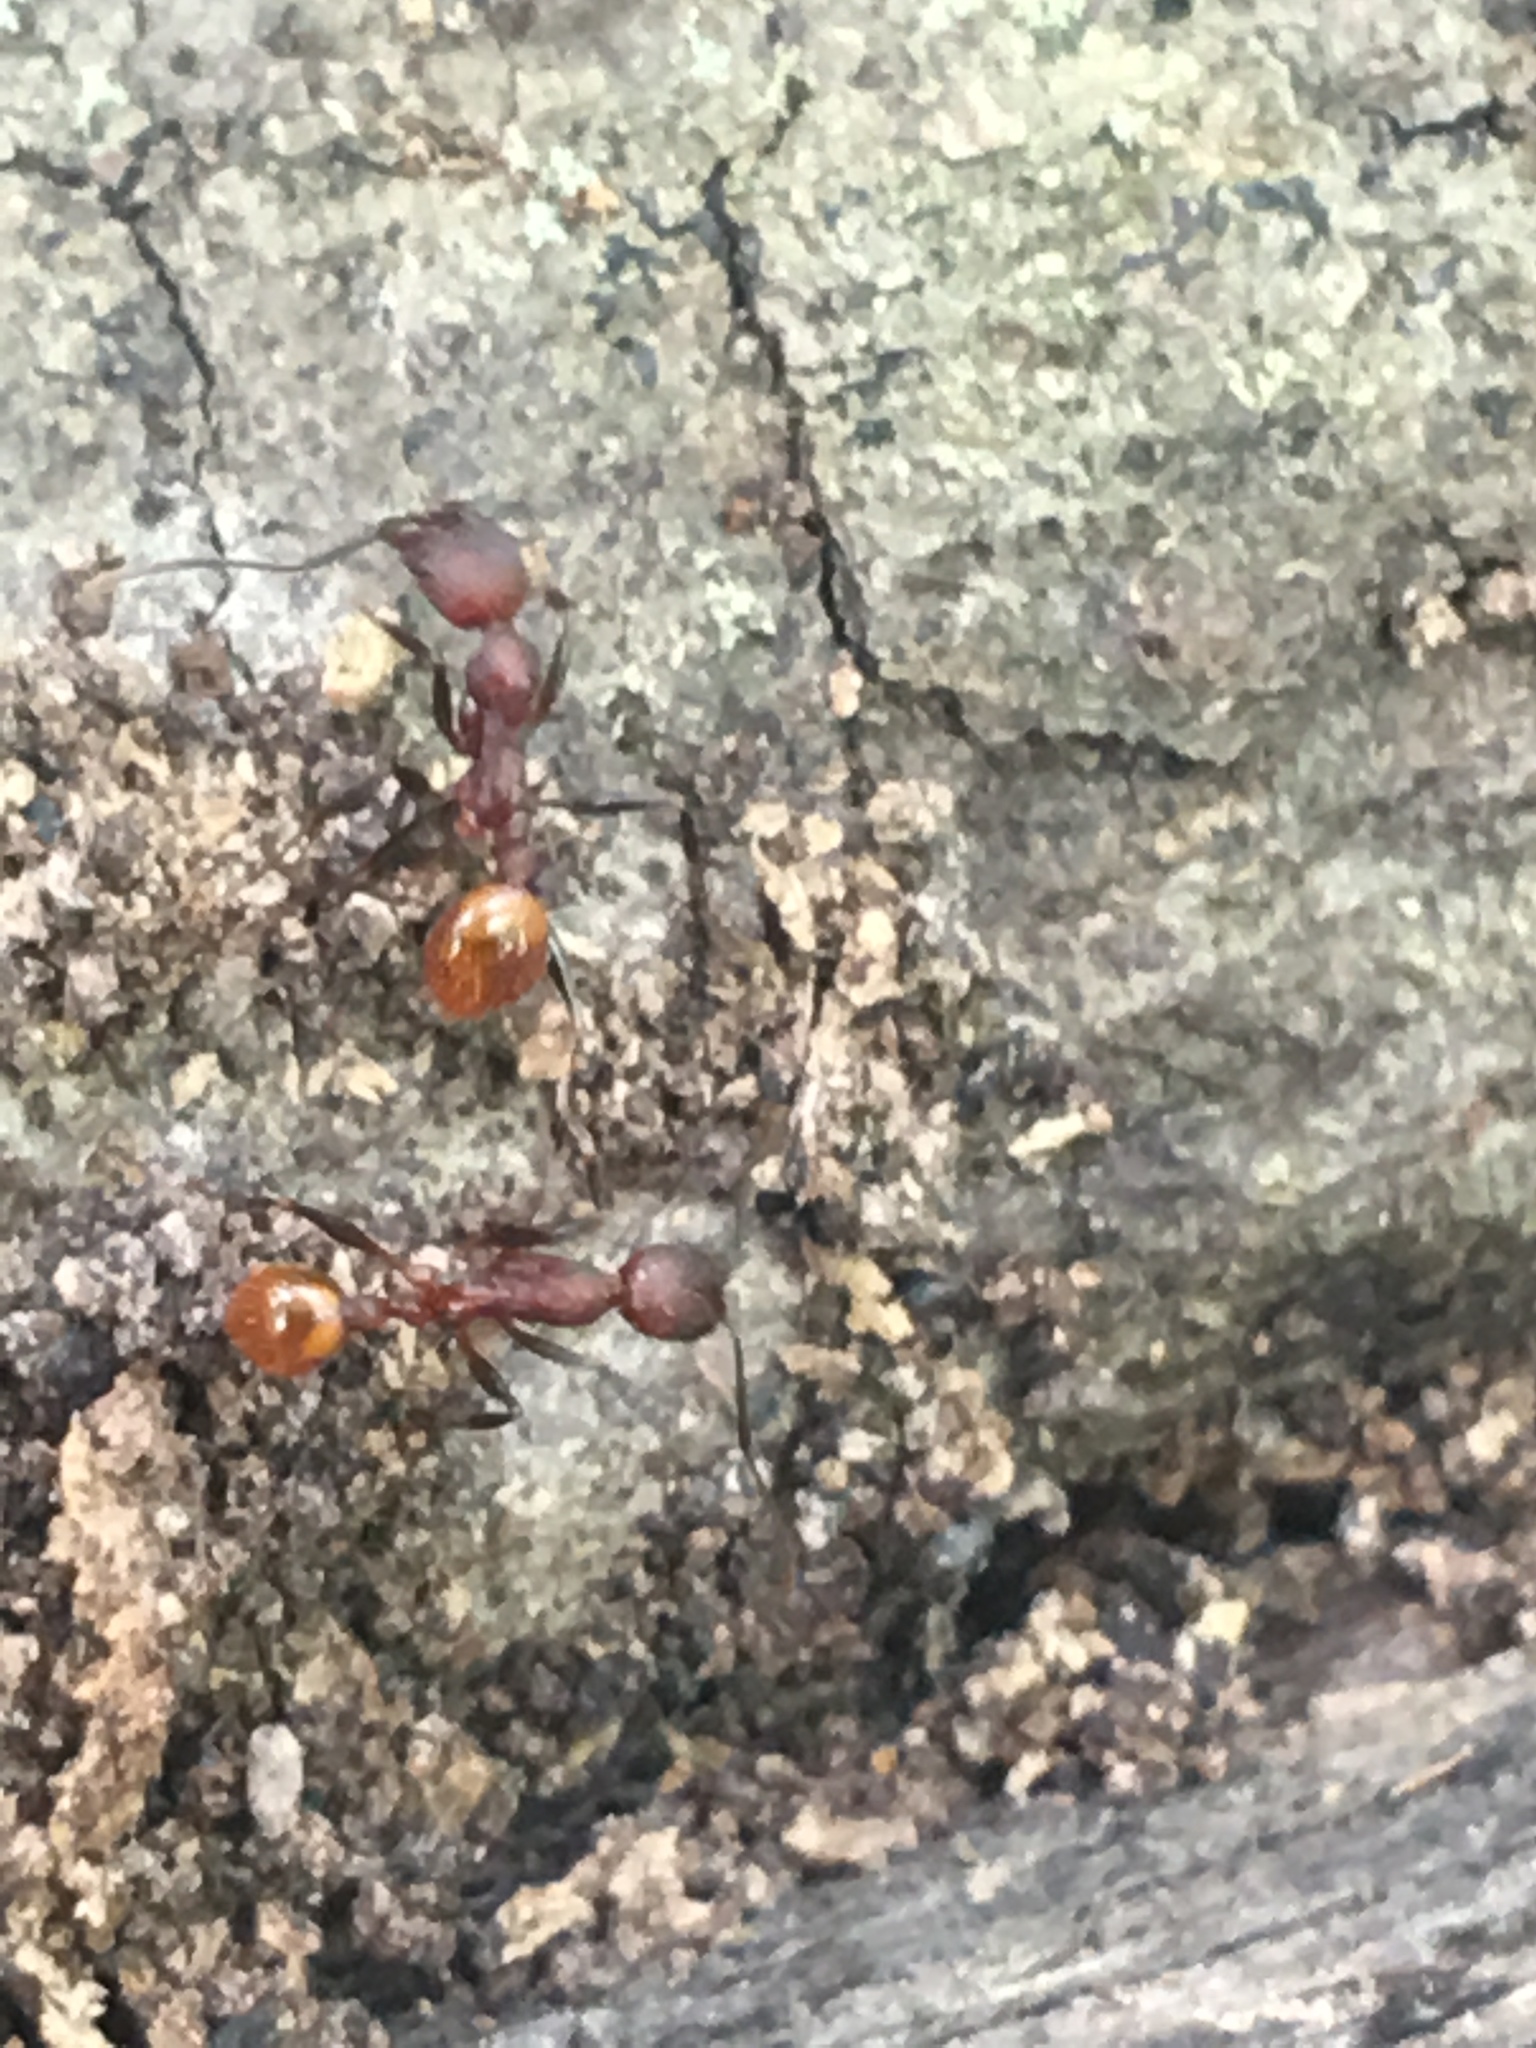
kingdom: Animalia
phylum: Arthropoda
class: Insecta
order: Hymenoptera
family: Formicidae
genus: Aphaenogaster
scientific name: Aphaenogaster lamellidens
